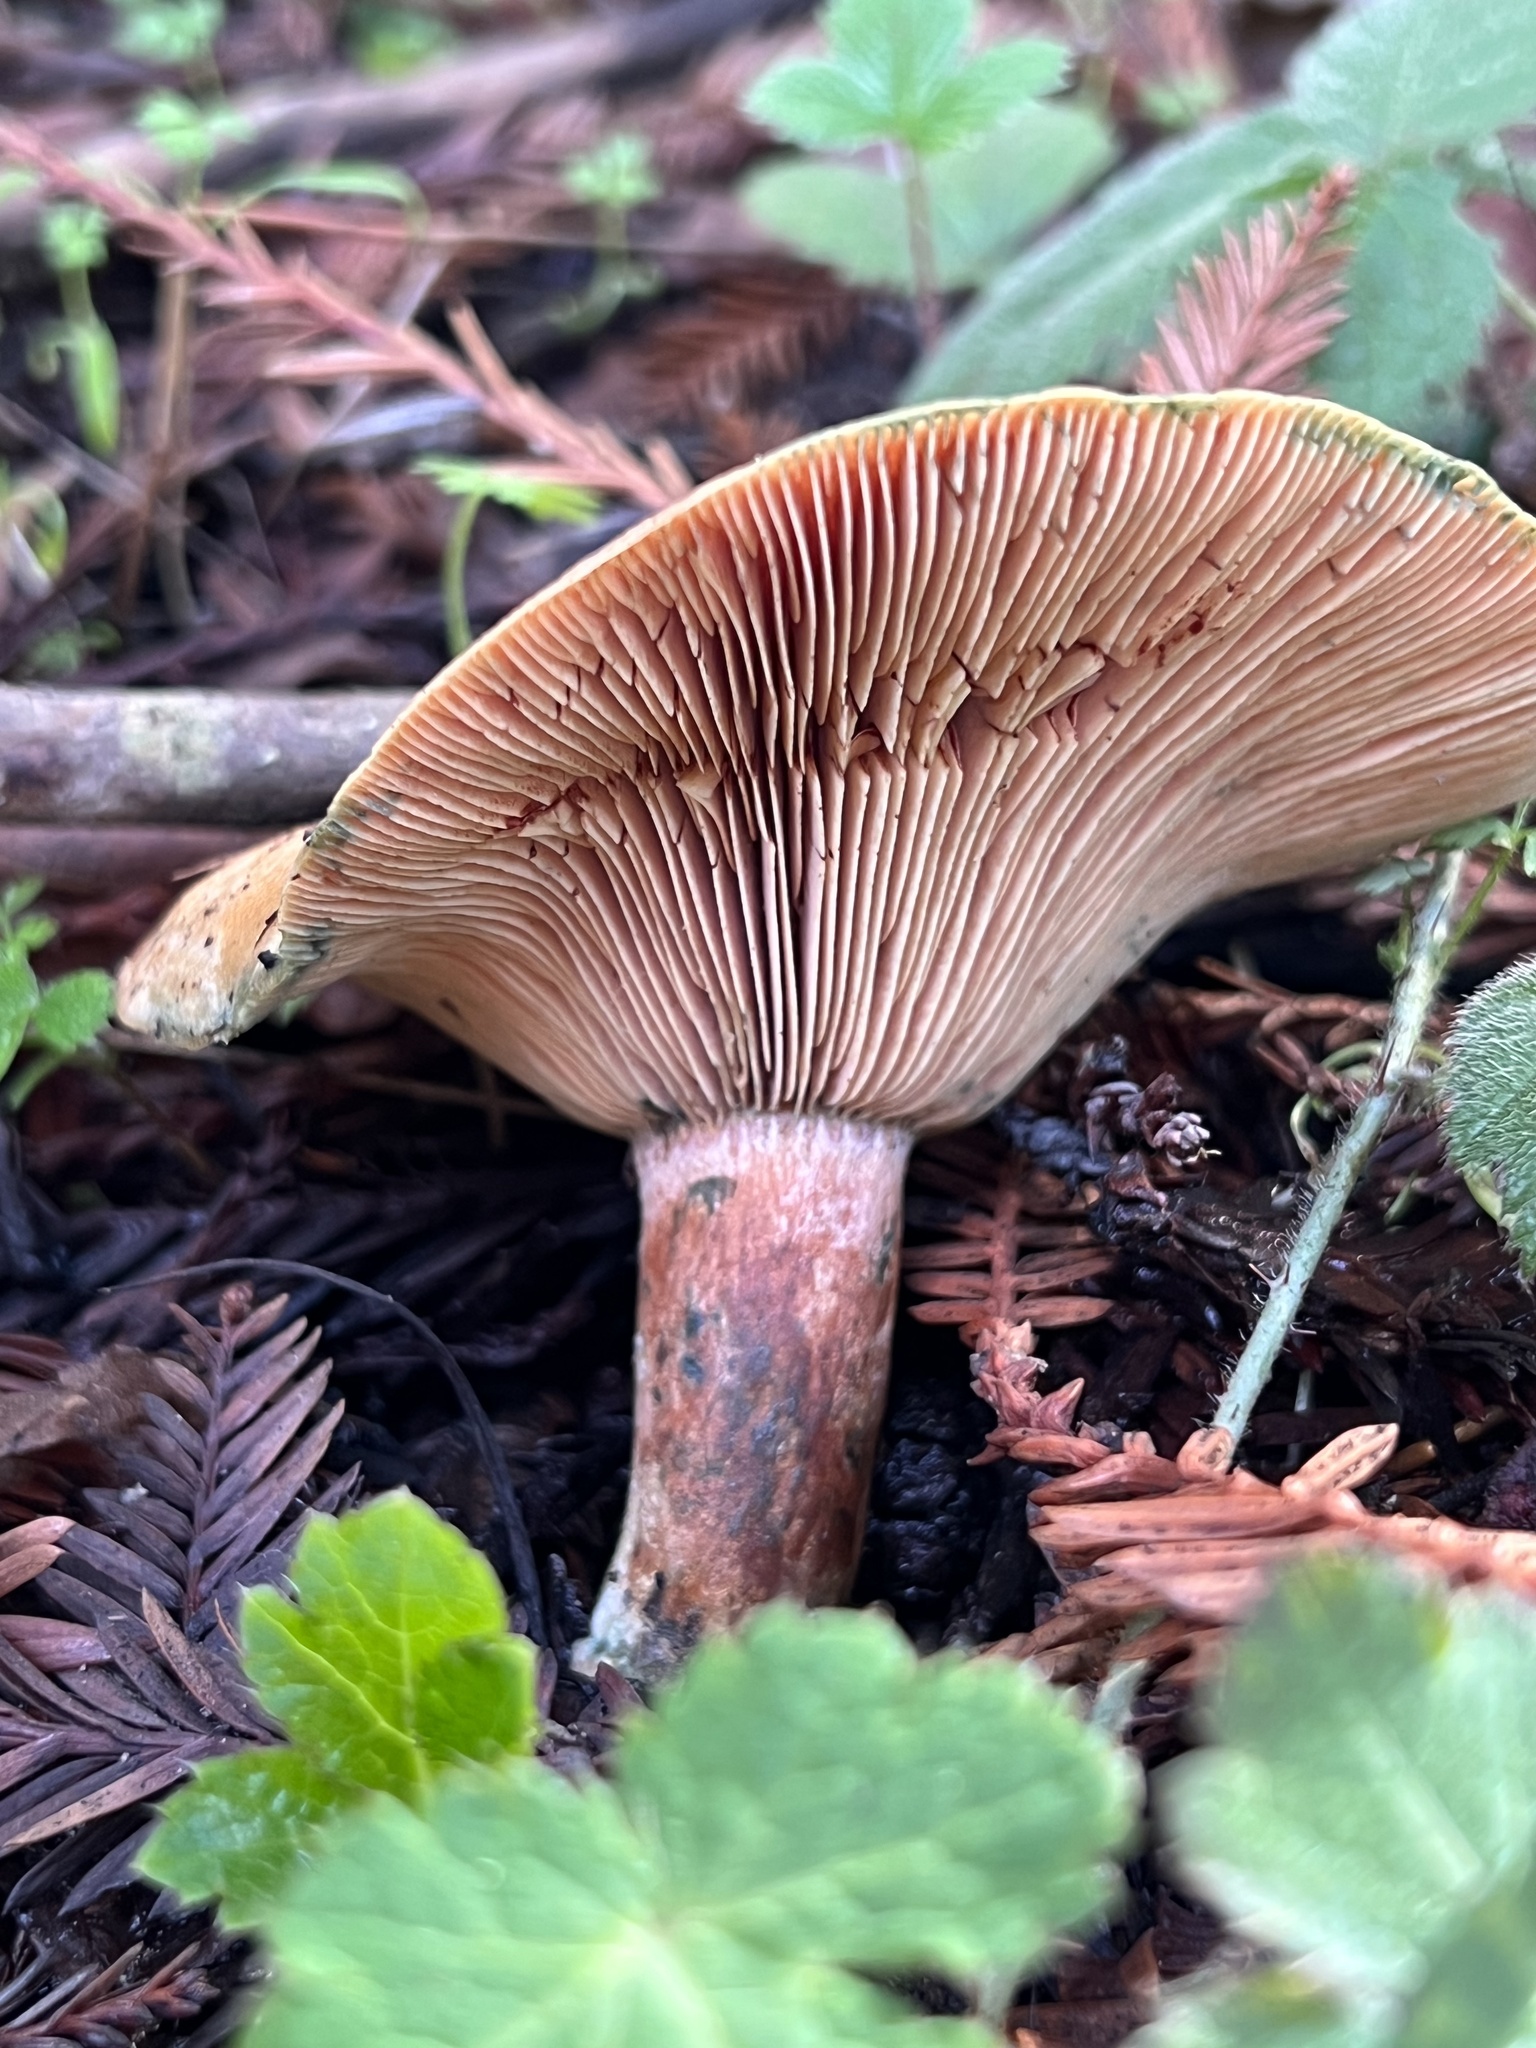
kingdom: Fungi
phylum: Basidiomycota
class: Agaricomycetes
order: Russulales
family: Russulaceae
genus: Lactarius
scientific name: Lactarius rubrilacteus
